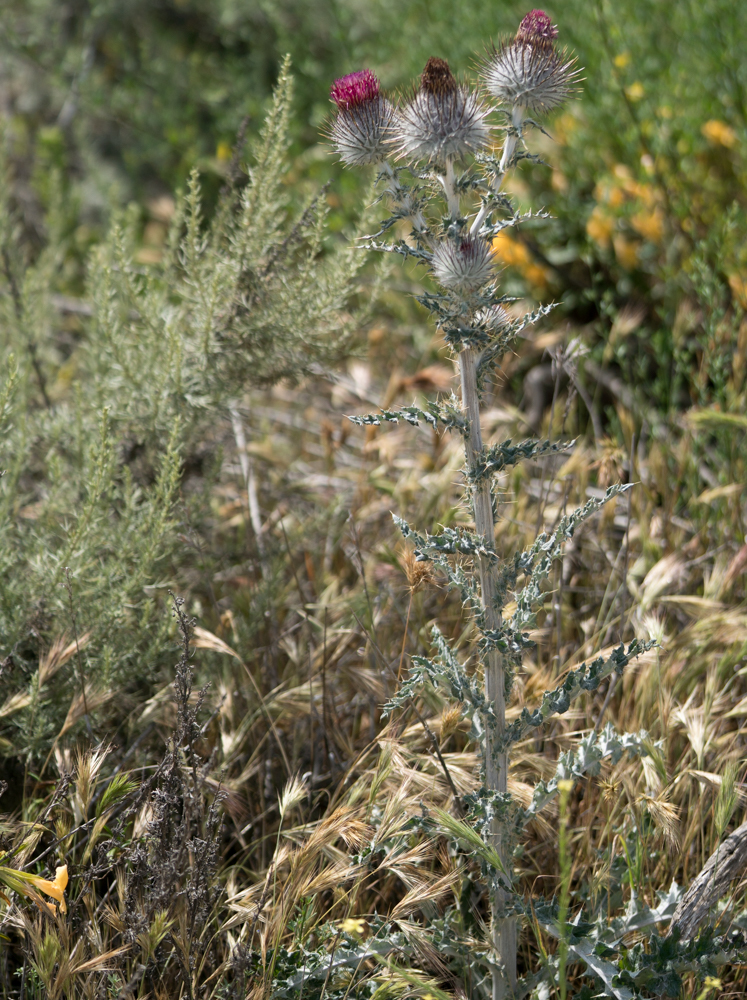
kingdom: Plantae
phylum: Tracheophyta
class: Magnoliopsida
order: Asterales
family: Asteraceae
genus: Cirsium
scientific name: Cirsium occidentale
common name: Western thistle
